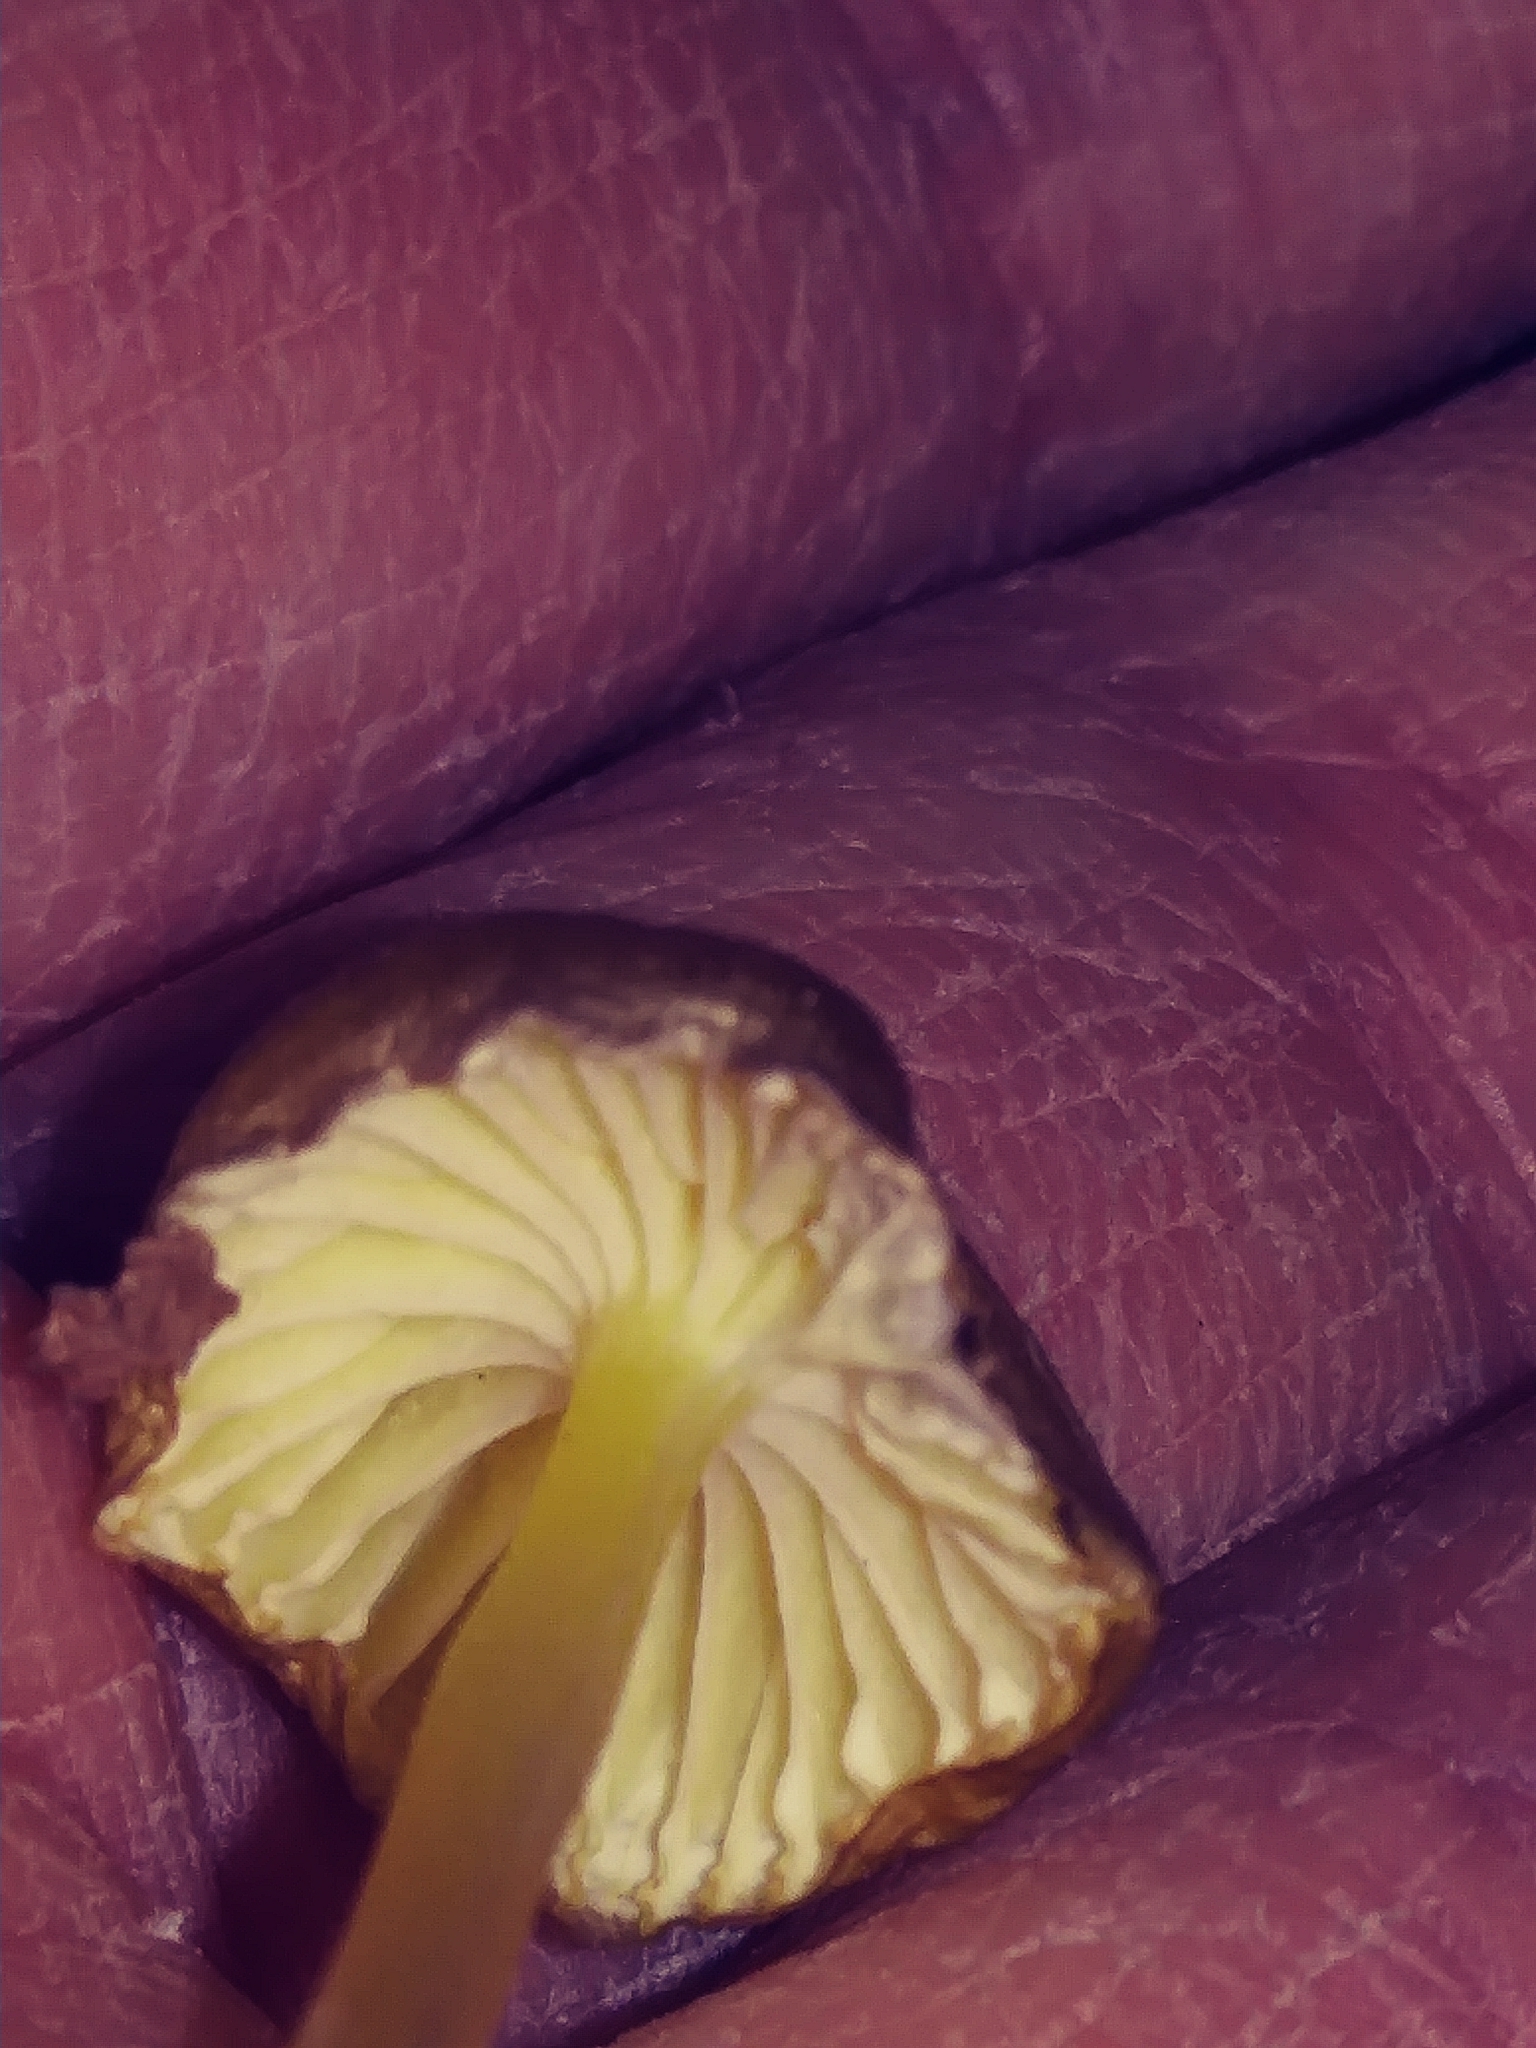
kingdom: Fungi
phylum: Basidiomycota
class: Agaricomycetes
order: Agaricales
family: Mycenaceae
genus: Mycena
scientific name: Mycena epipterygia
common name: Yellowleg bonnet
